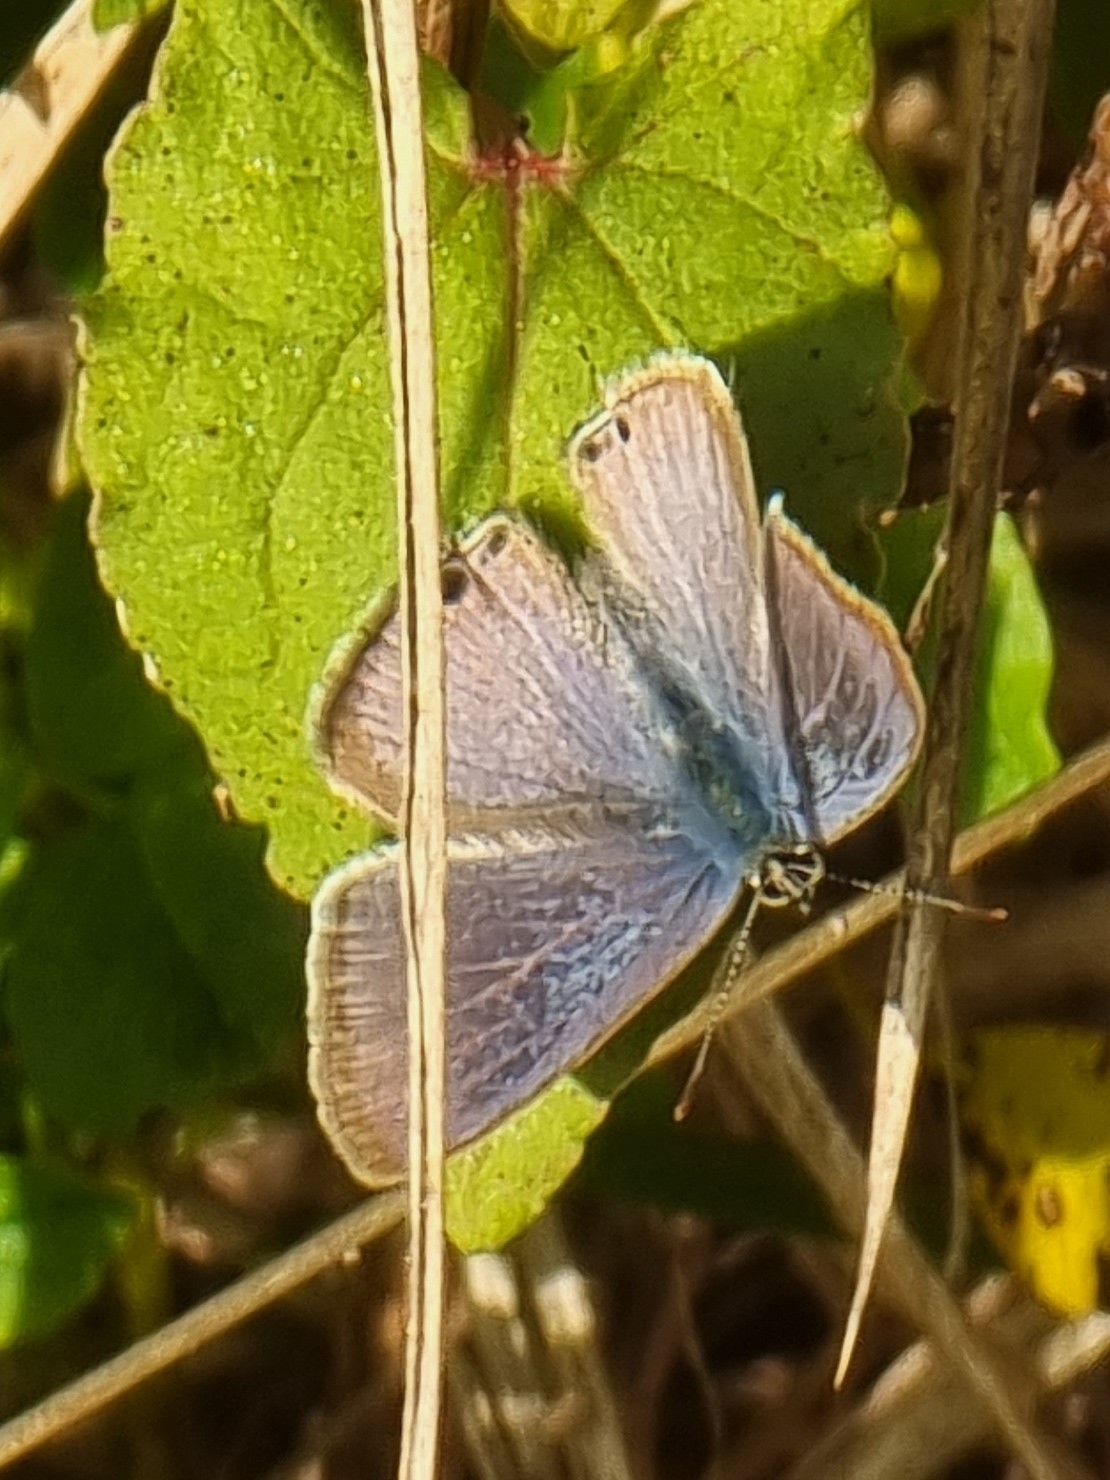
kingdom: Animalia
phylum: Arthropoda
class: Insecta
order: Lepidoptera
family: Lycaenidae
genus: Lampides
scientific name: Lampides boeticus
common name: Long-tailed blue
